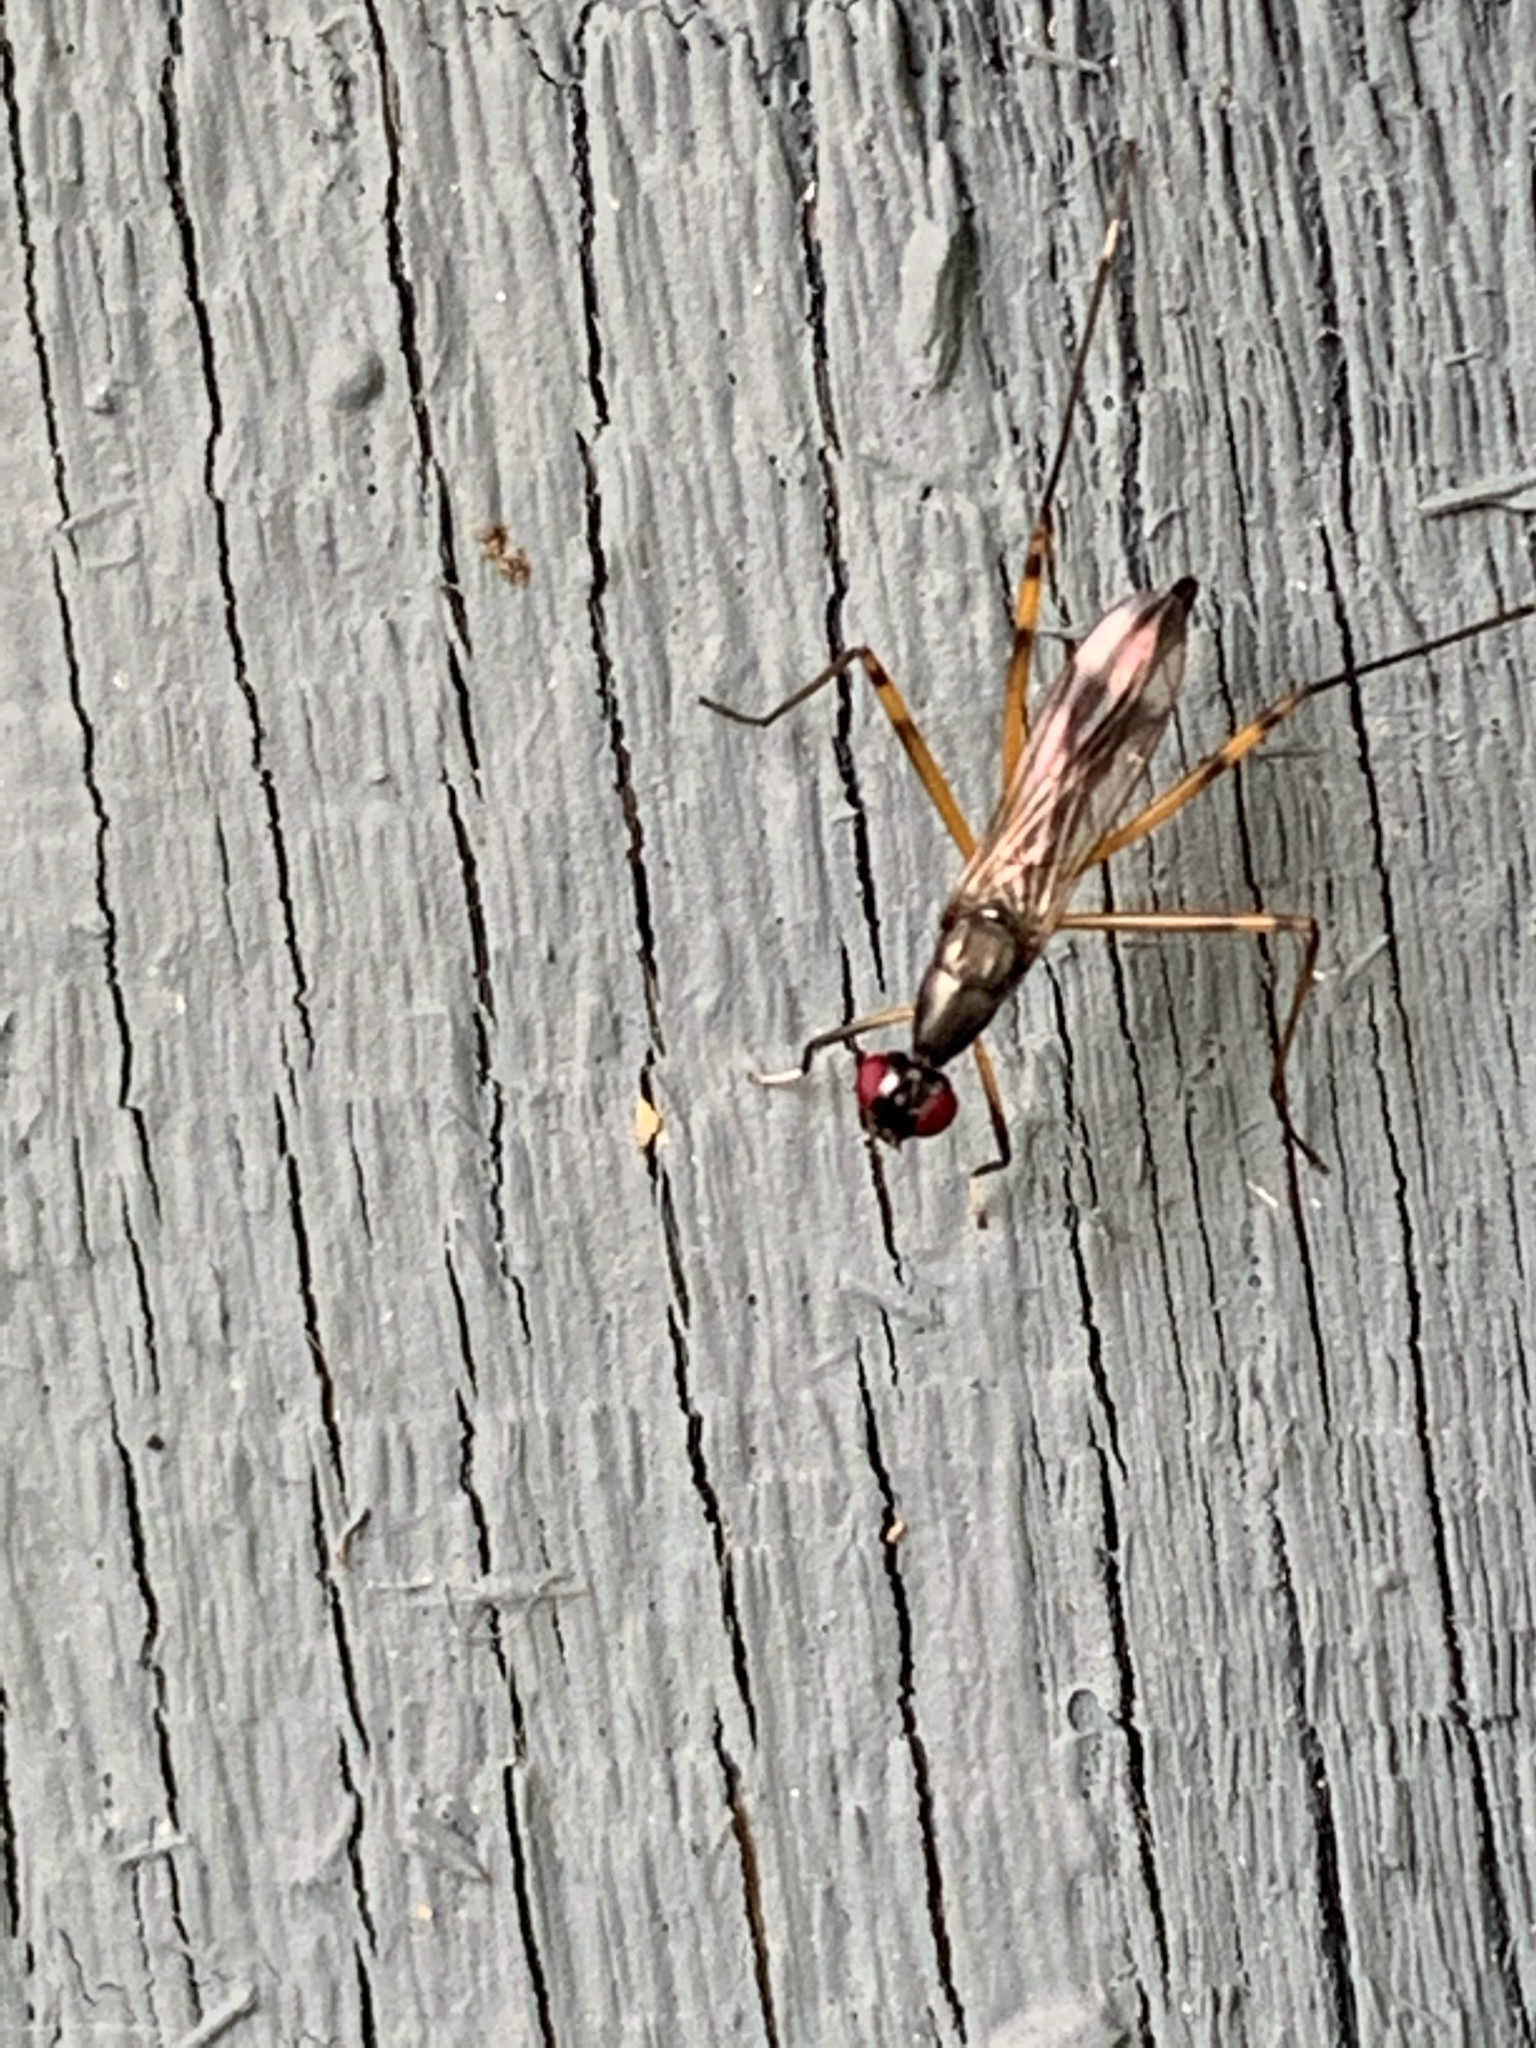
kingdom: Animalia
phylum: Arthropoda
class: Insecta
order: Diptera
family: Micropezidae
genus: Rainieria
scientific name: Rainieria antennaepes
